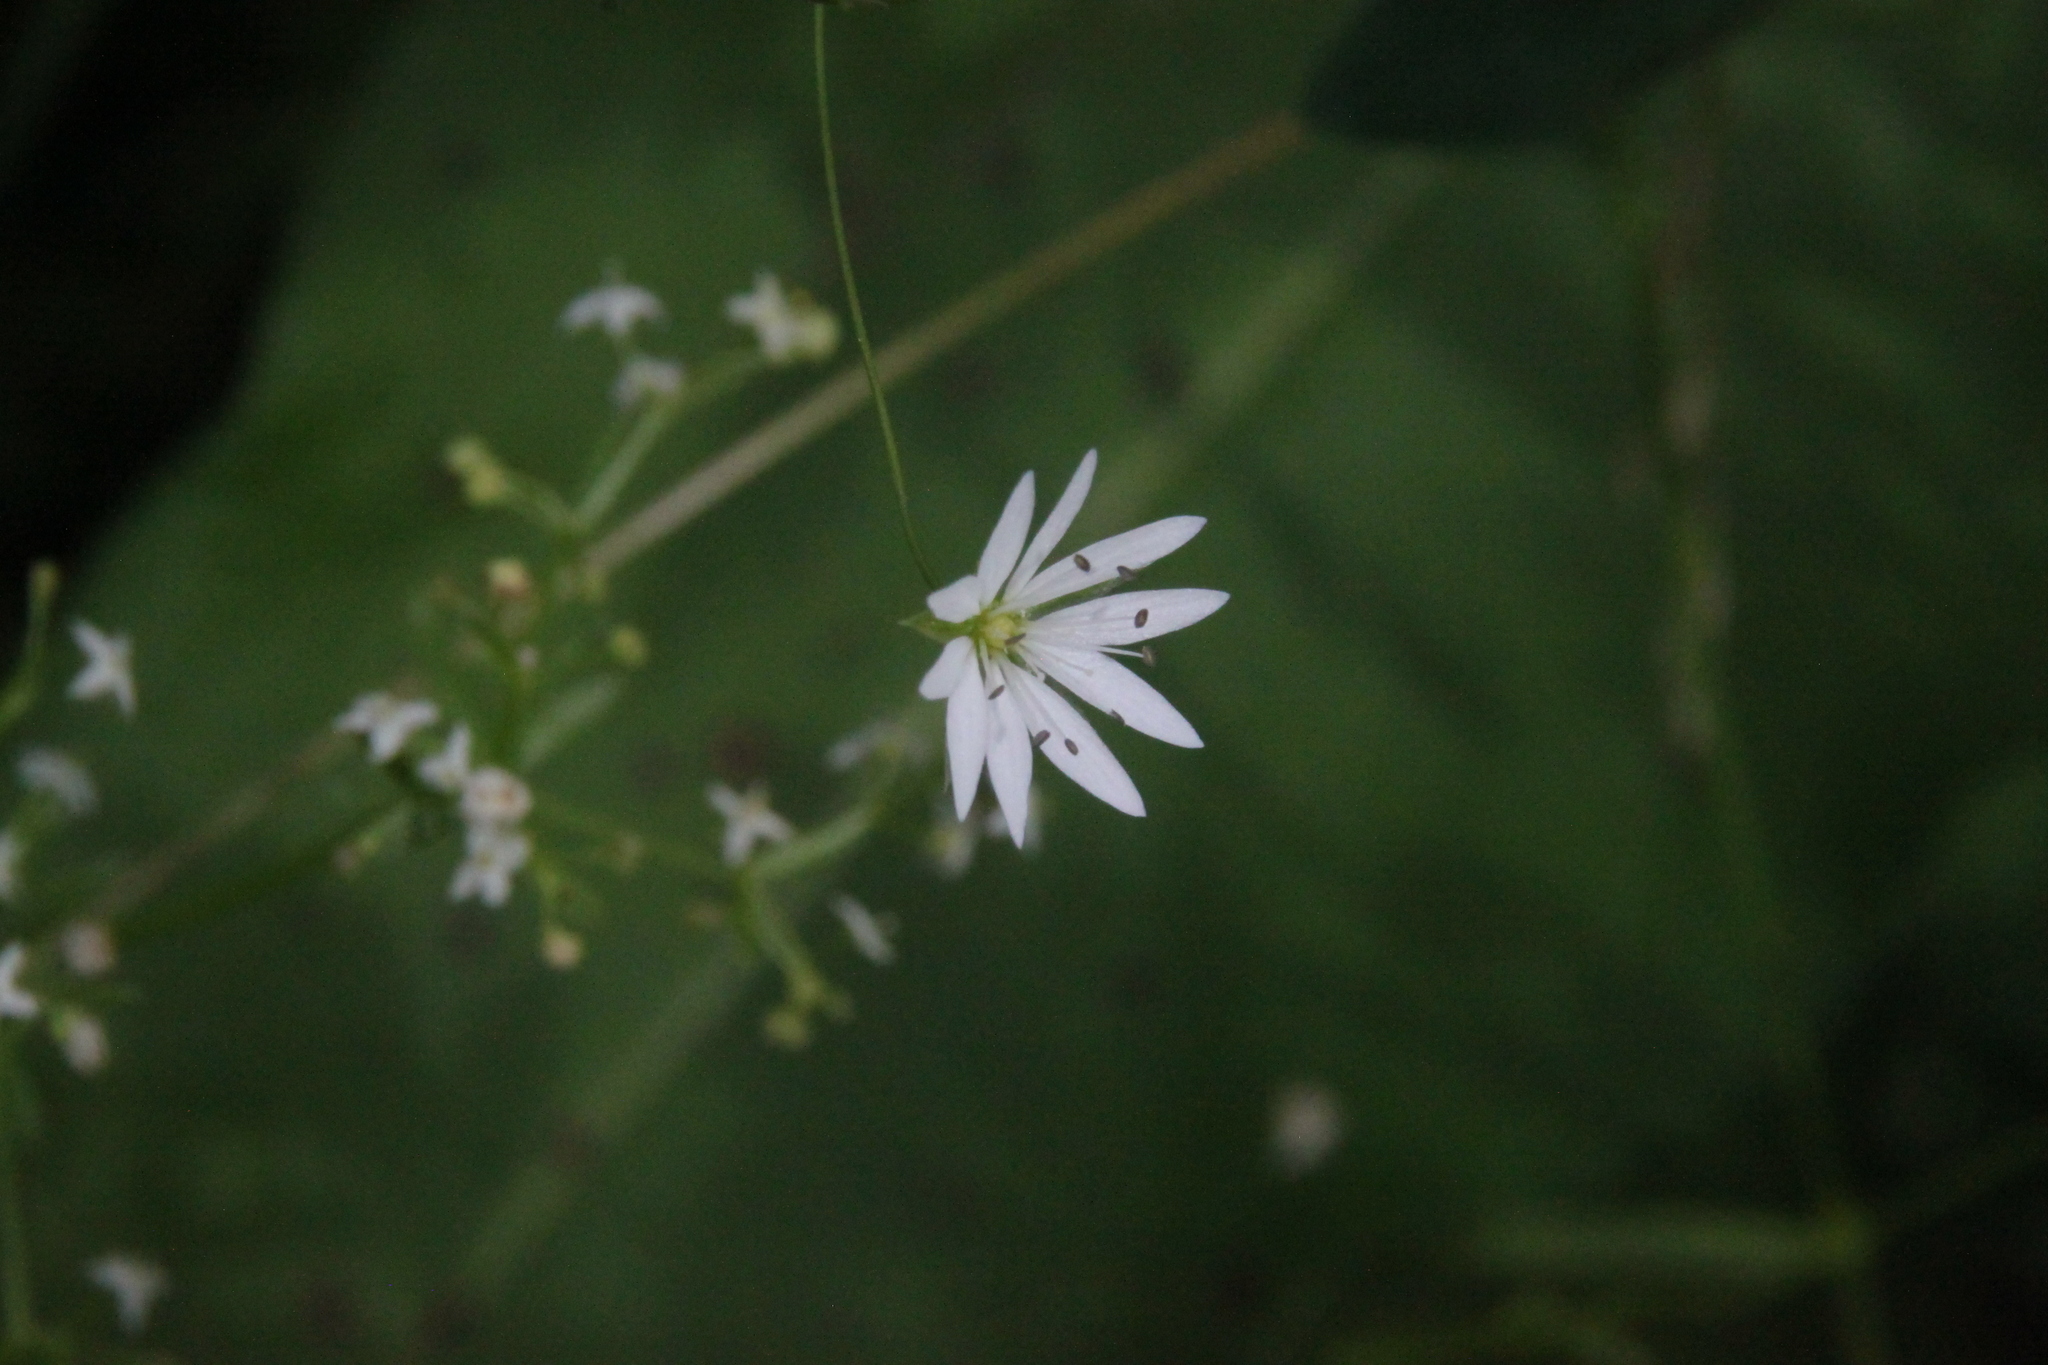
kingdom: Plantae
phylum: Tracheophyta
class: Magnoliopsida
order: Caryophyllales
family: Caryophyllaceae
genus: Stellaria
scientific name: Stellaria graminea
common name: Grass-like starwort
